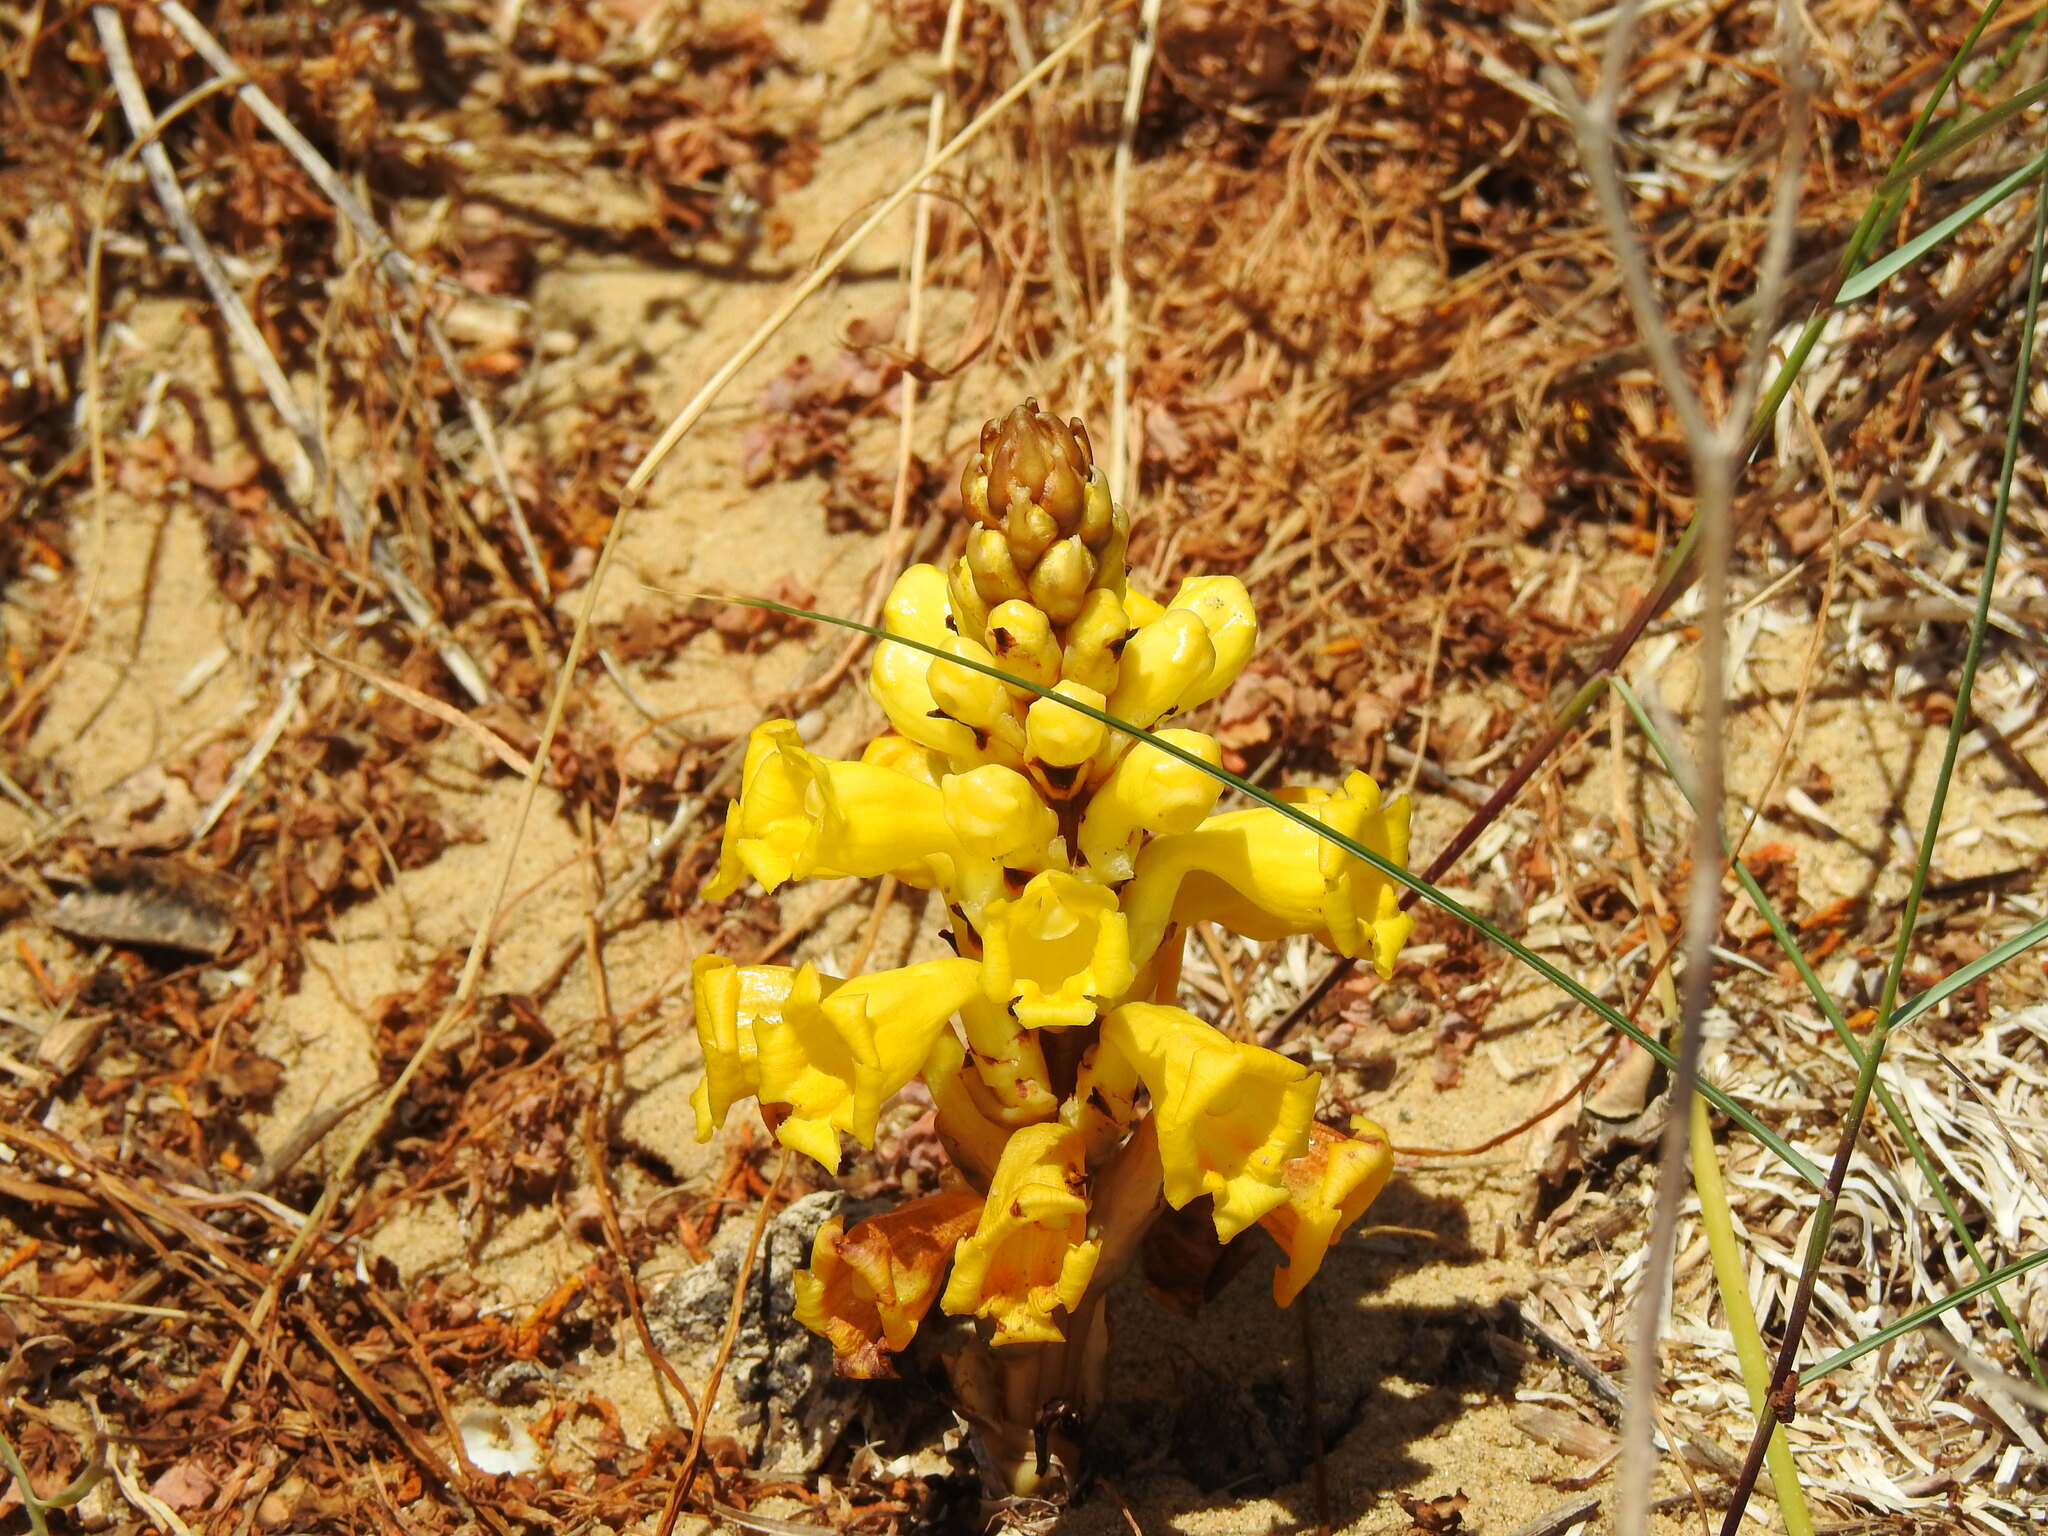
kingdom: Plantae
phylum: Tracheophyta
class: Magnoliopsida
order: Lamiales
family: Orobanchaceae
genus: Cistanche
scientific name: Cistanche phelypaea
